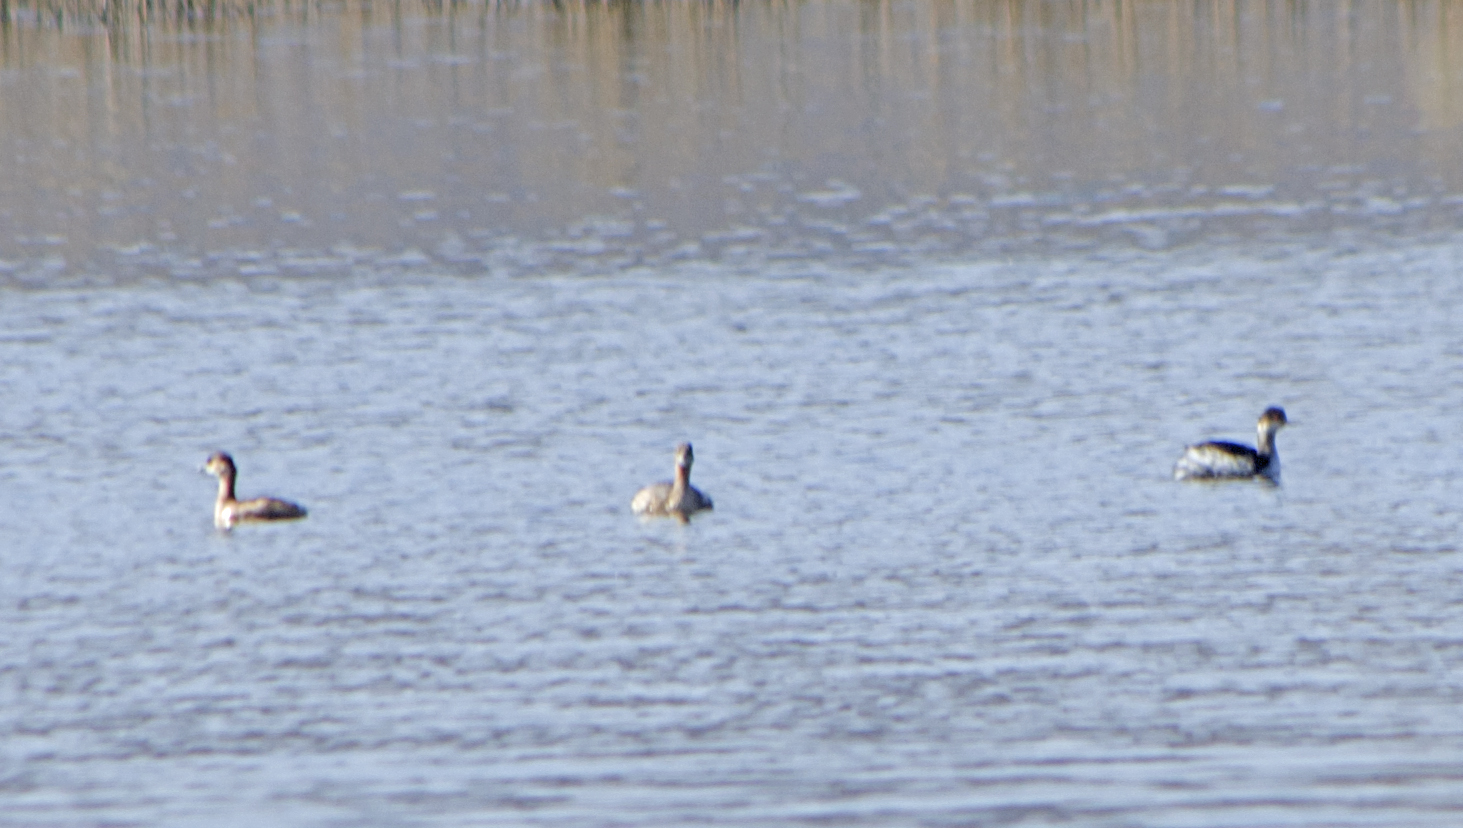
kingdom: Animalia
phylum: Chordata
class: Aves
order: Podicipediformes
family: Podicipedidae
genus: Podiceps
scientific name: Podiceps nigricollis
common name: Black-necked grebe
